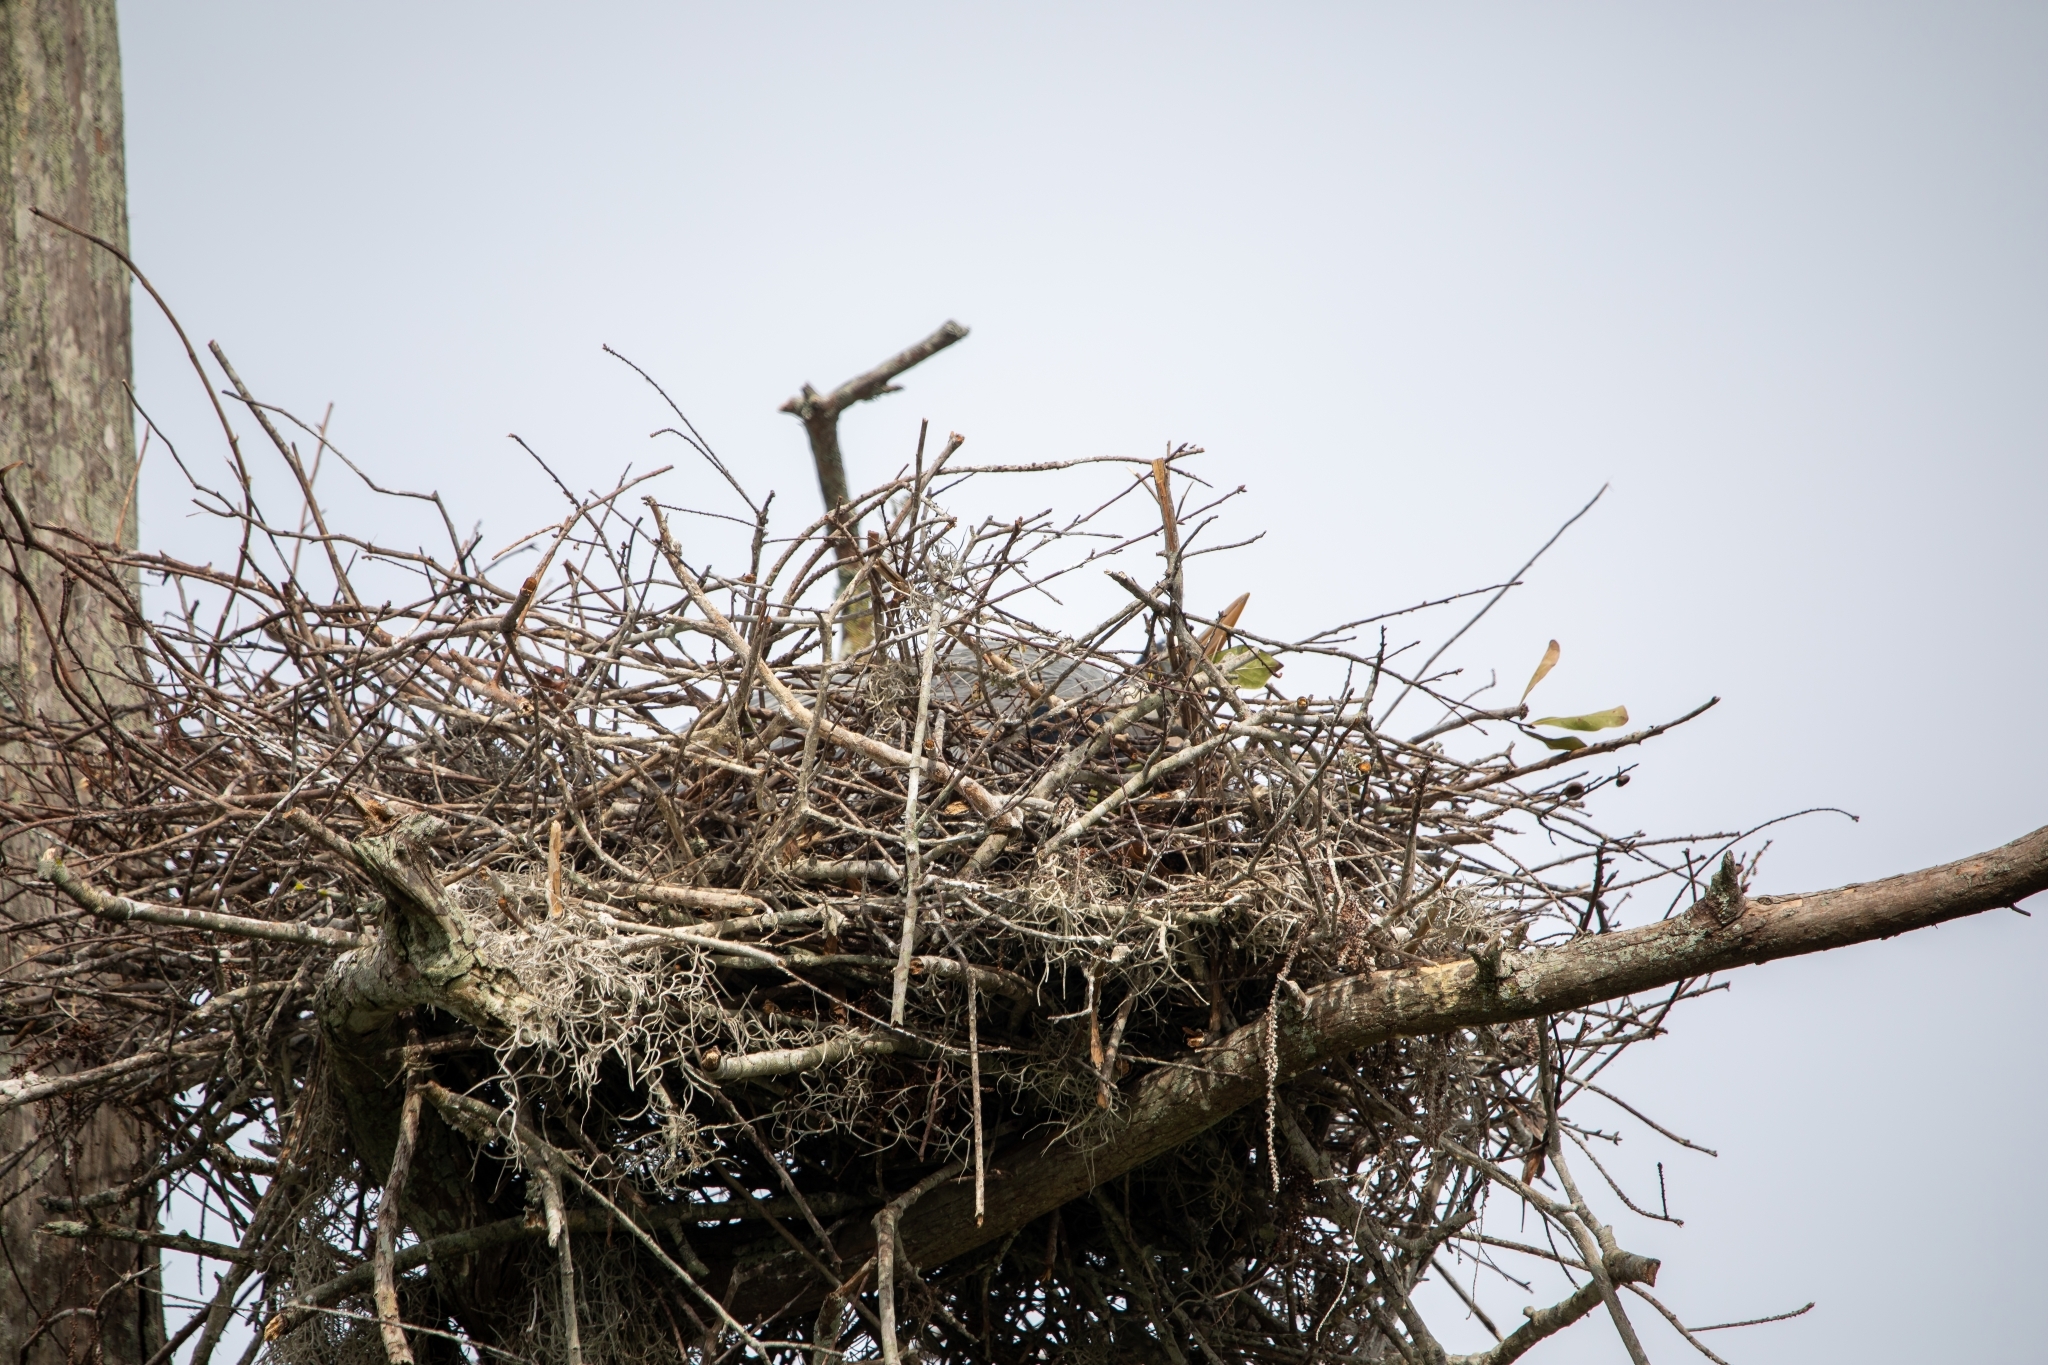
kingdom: Animalia
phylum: Chordata
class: Aves
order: Pelecaniformes
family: Ardeidae
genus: Ardea
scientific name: Ardea herodias
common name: Great blue heron
